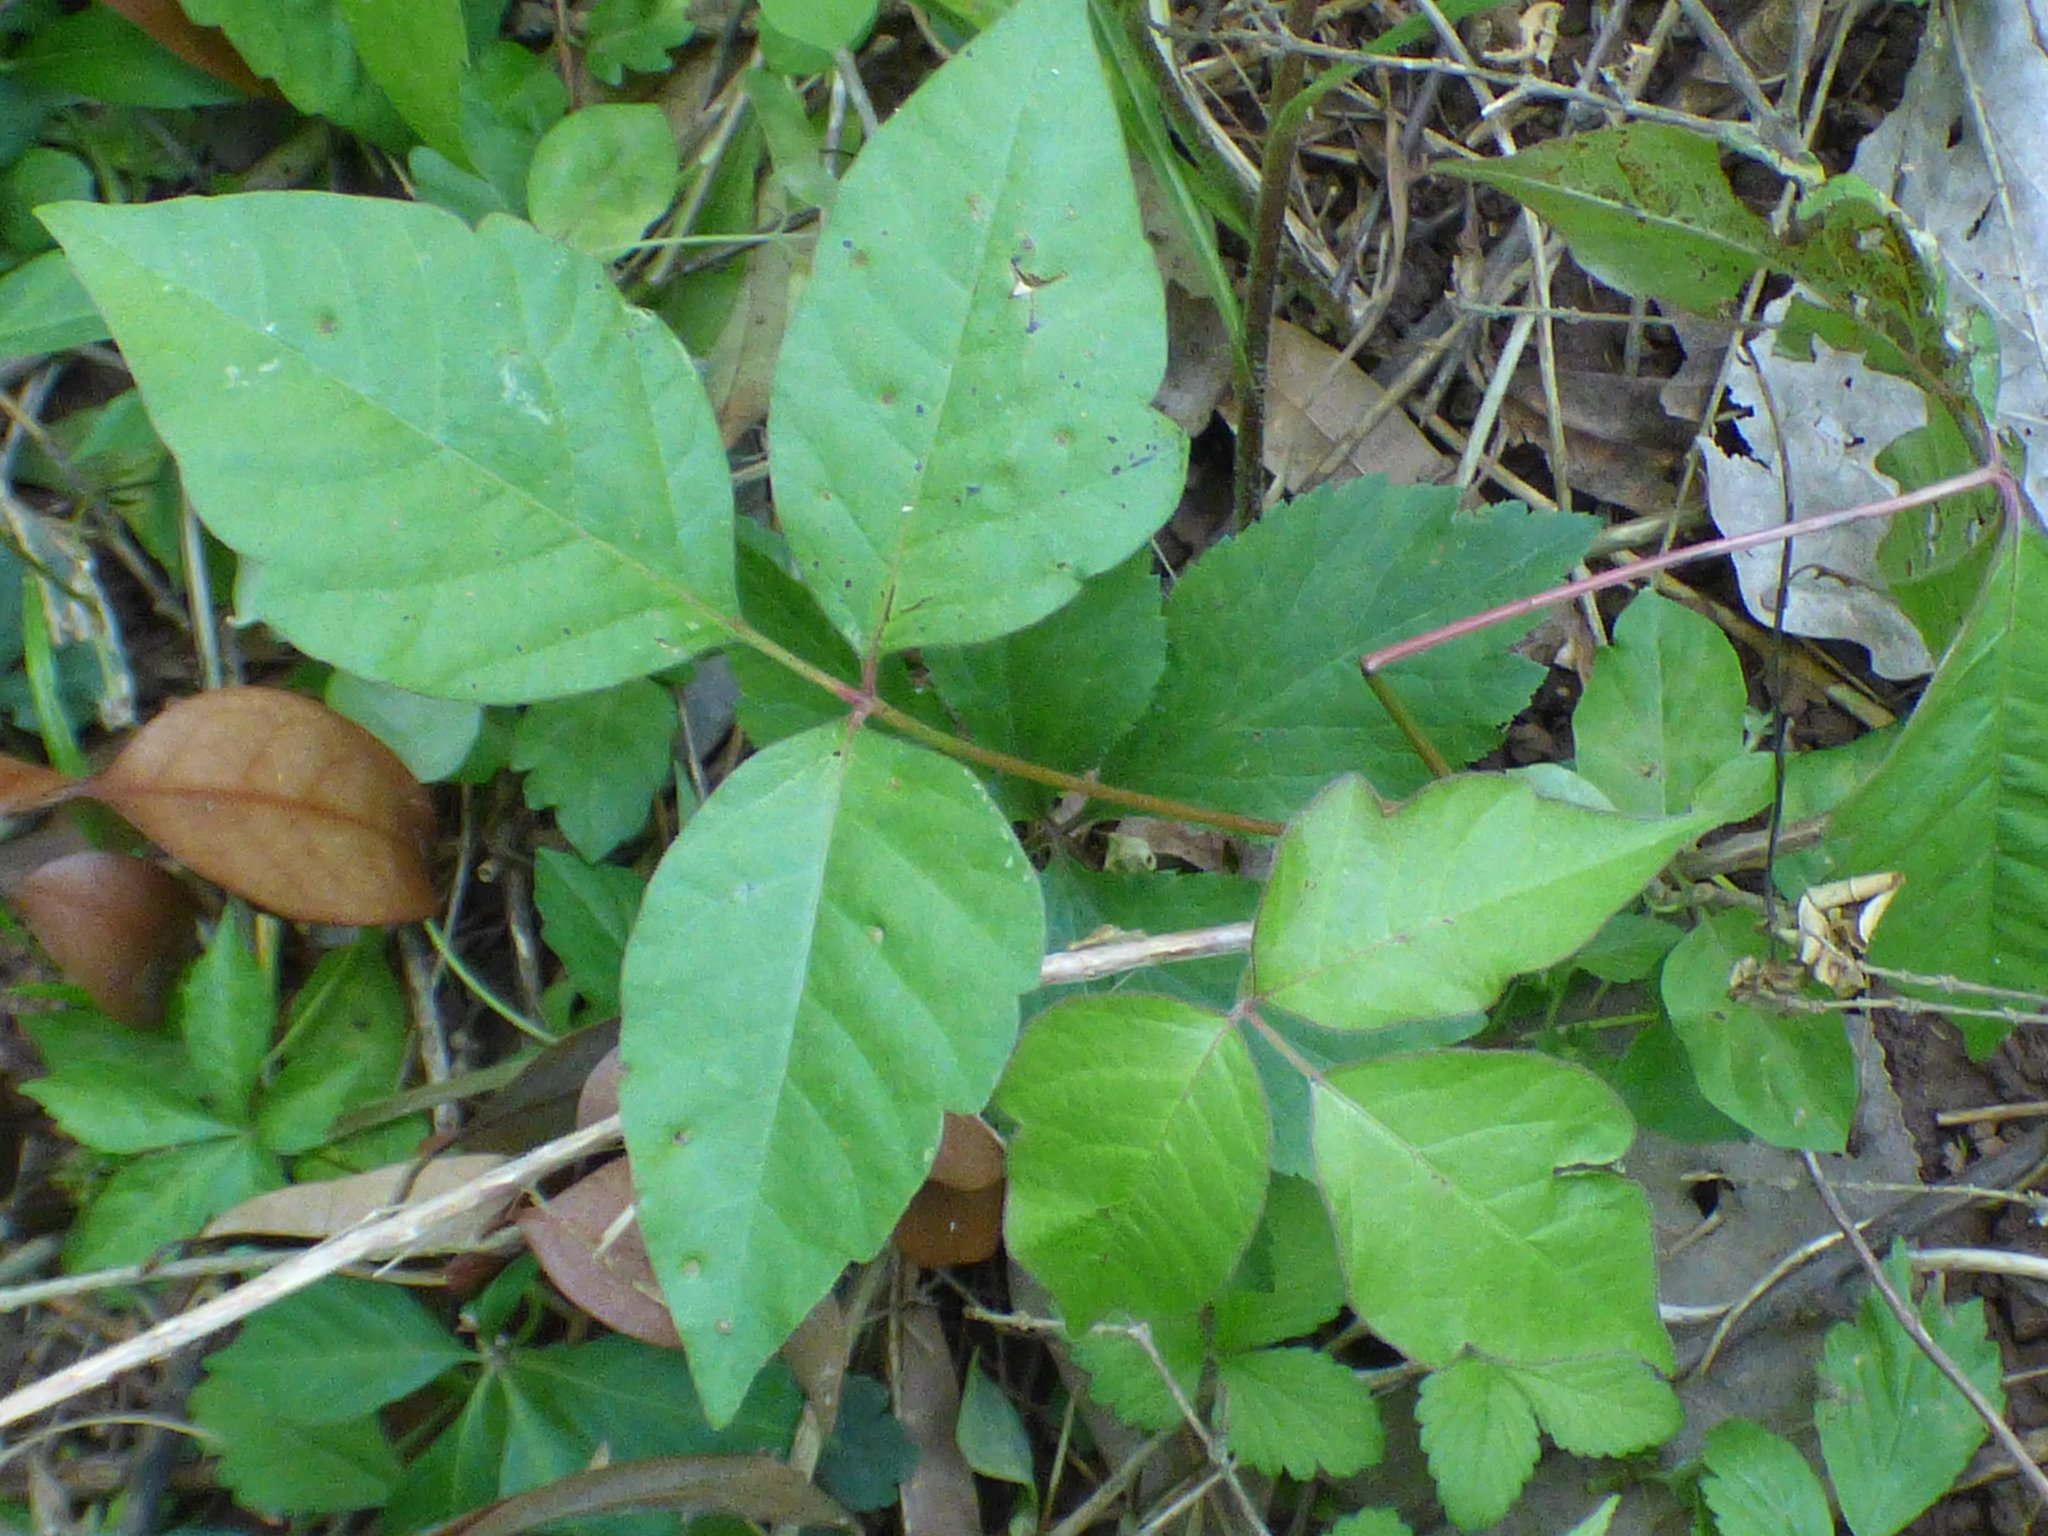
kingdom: Plantae
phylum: Tracheophyta
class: Magnoliopsida
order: Sapindales
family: Anacardiaceae
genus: Toxicodendron
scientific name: Toxicodendron radicans
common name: Poison ivy
